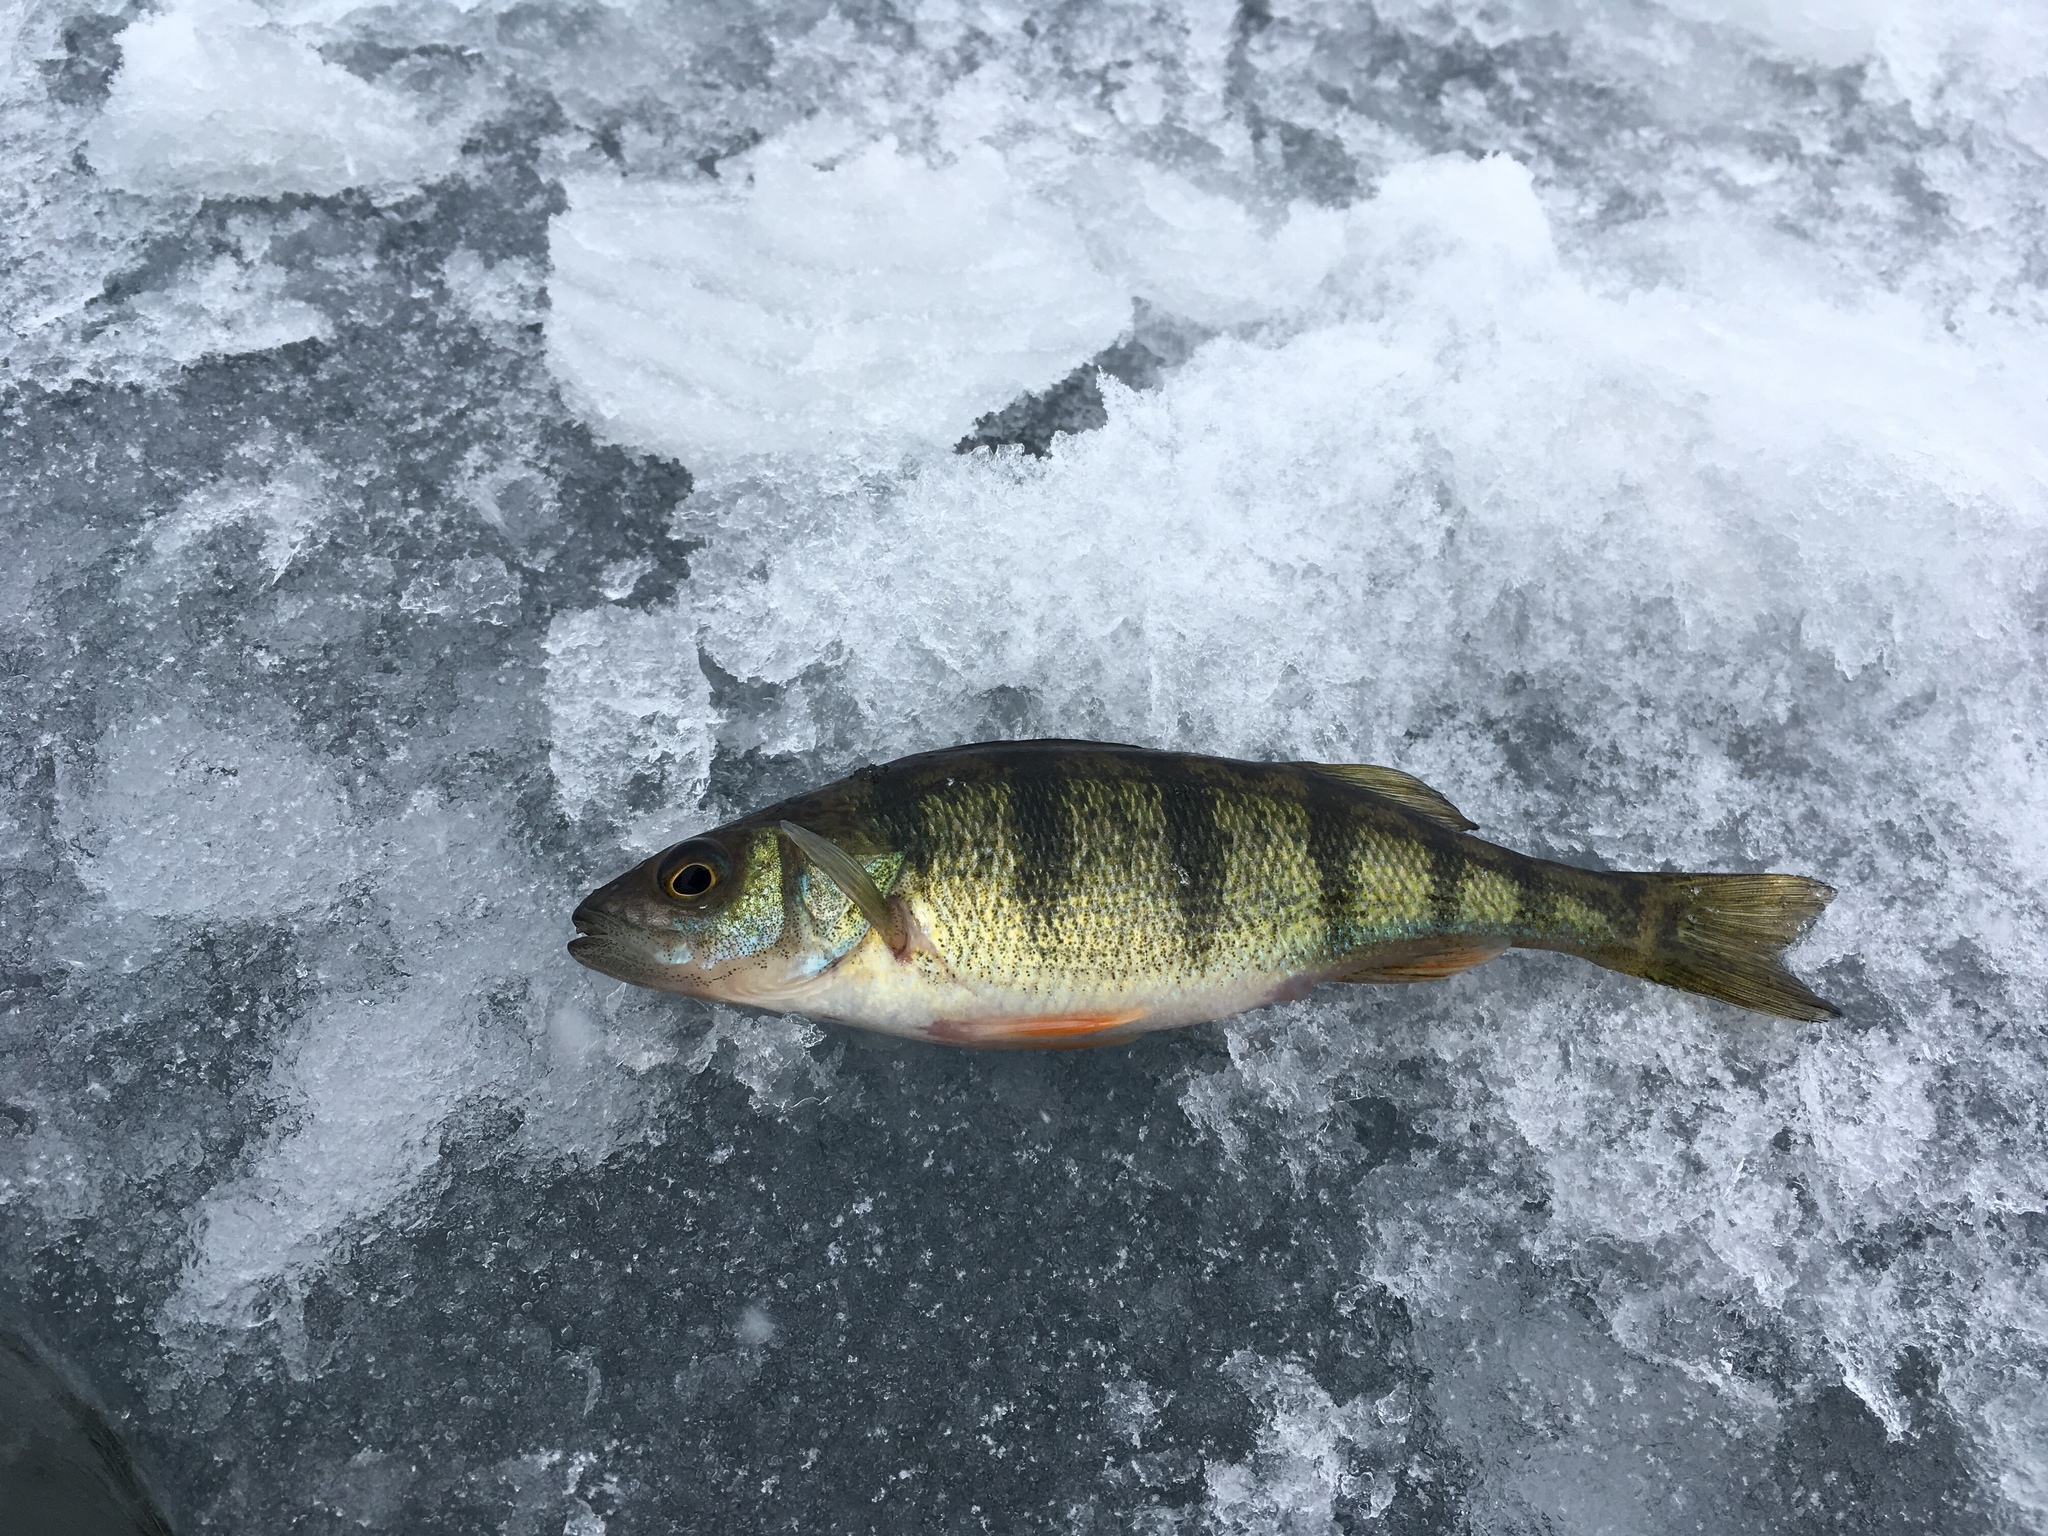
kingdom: Animalia
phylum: Chordata
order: Perciformes
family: Percidae
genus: Perca
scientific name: Perca flavescens
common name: Yellow perch
